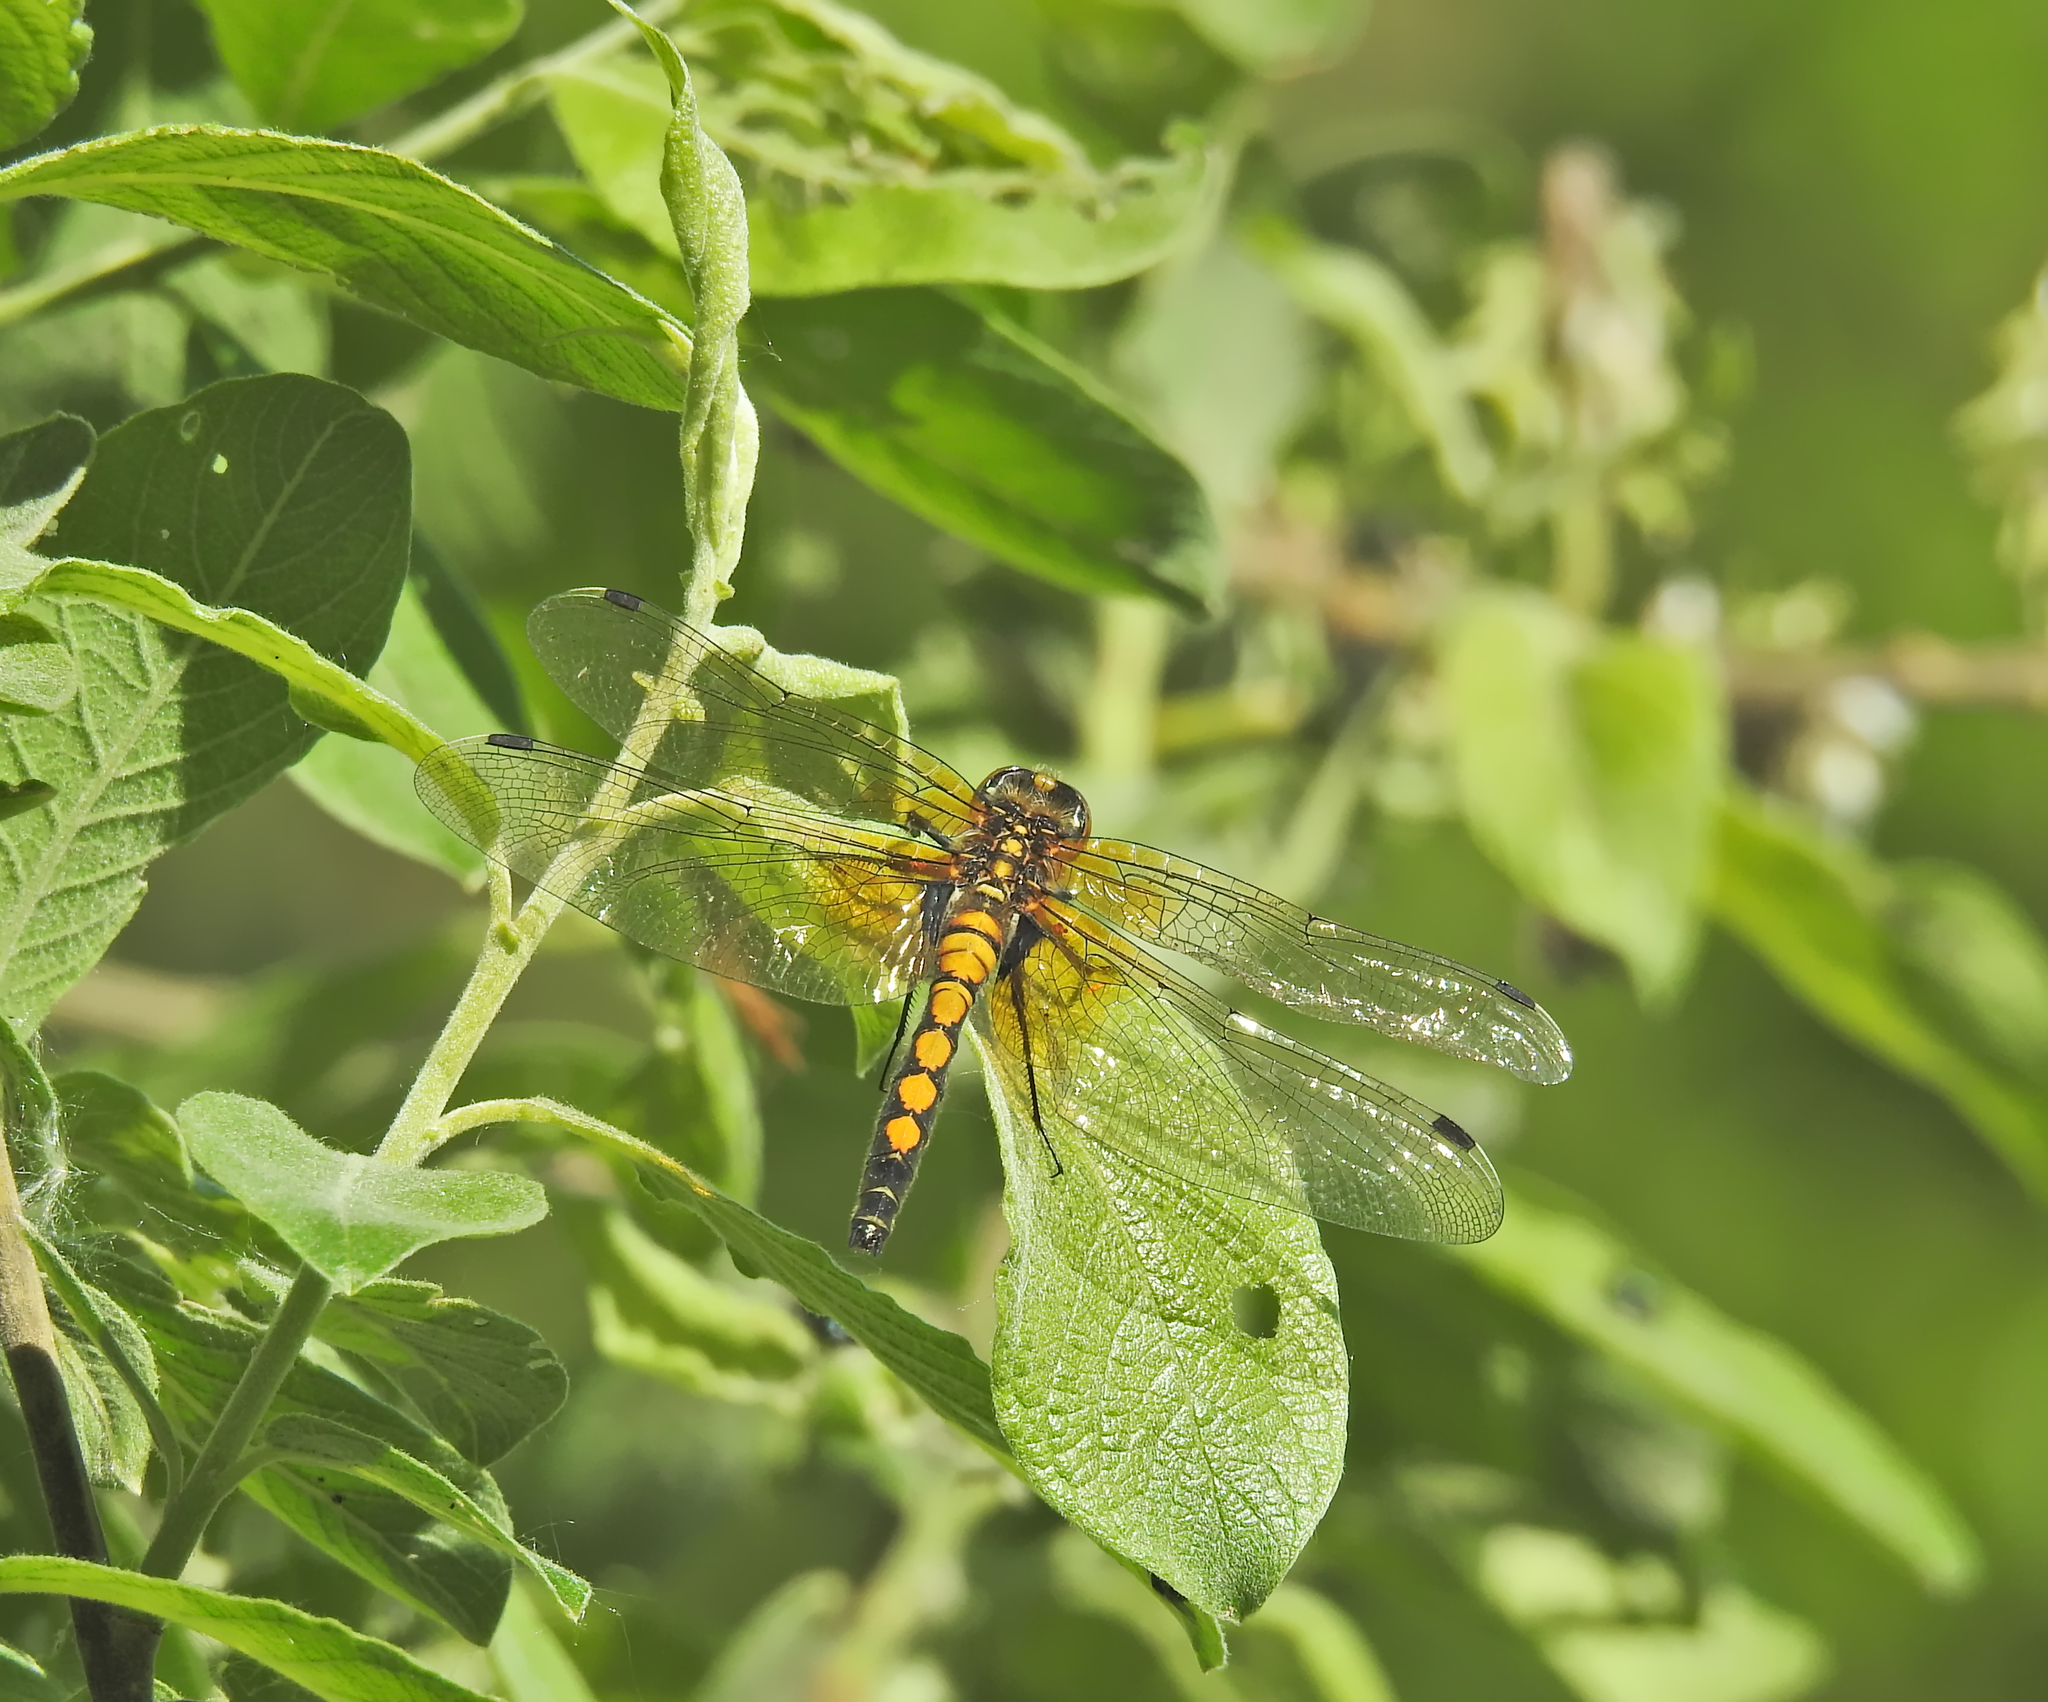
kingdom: Animalia
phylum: Arthropoda
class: Insecta
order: Odonata
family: Libellulidae
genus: Leucorrhinia
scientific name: Leucorrhinia pectoralis
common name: Yellow-spotted whiteface
